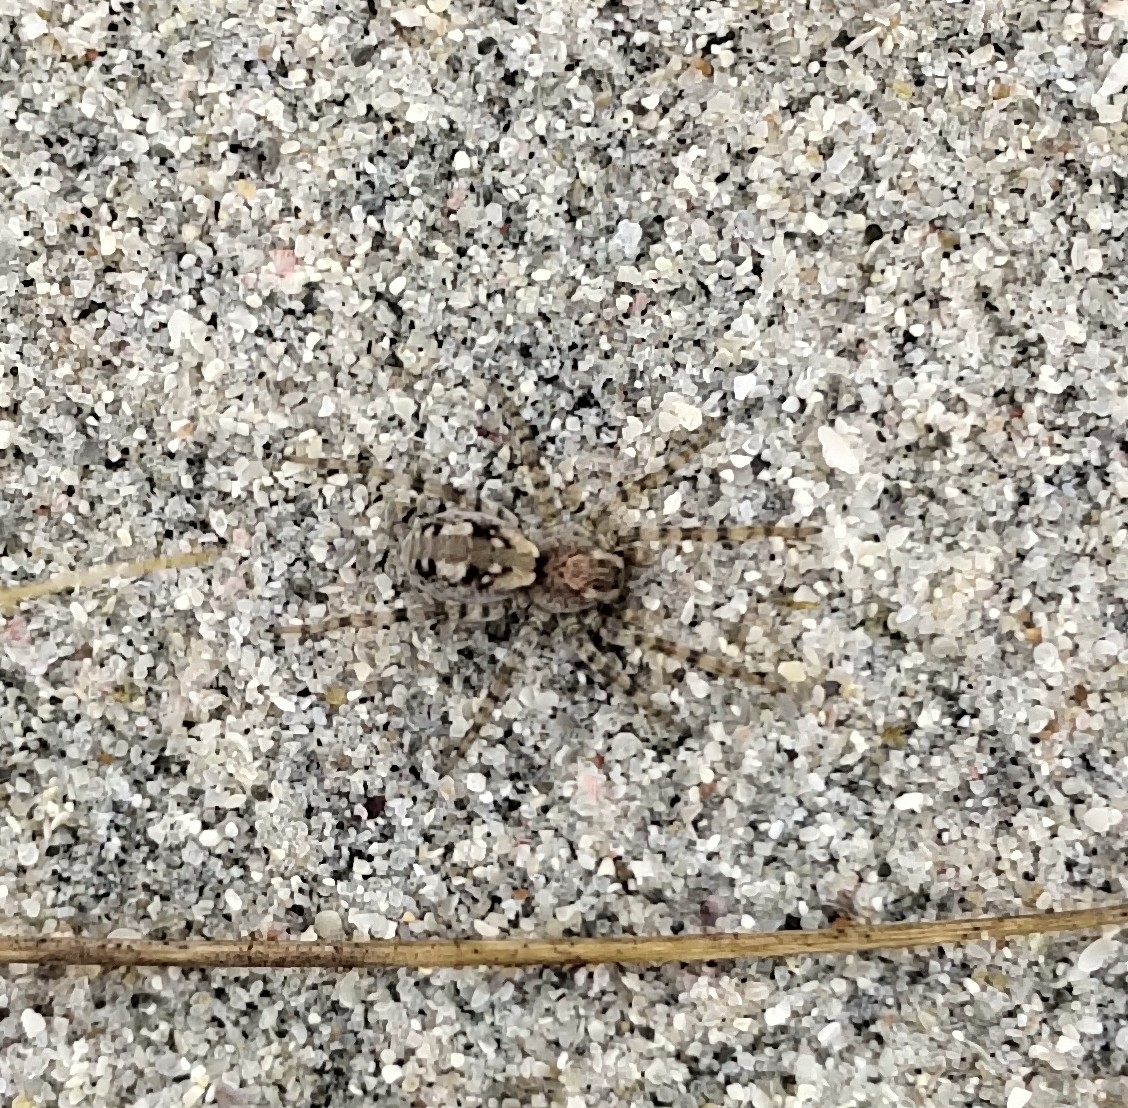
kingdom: Animalia
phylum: Arthropoda
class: Arachnida
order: Araneae
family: Lycosidae
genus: Arctosa
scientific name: Arctosa perita
